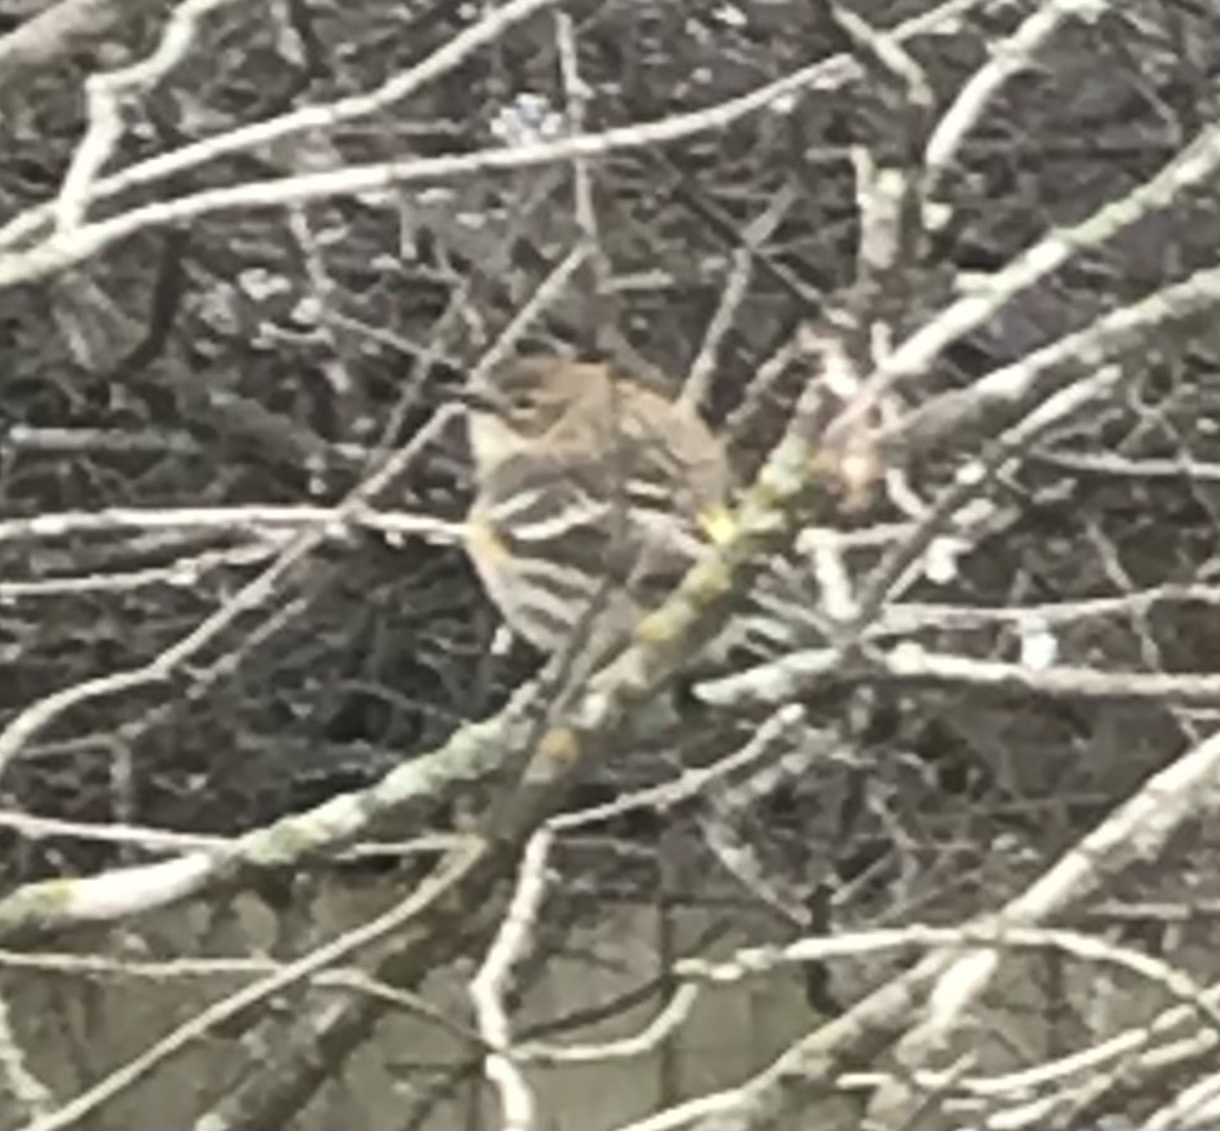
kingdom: Animalia
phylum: Chordata
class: Aves
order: Passeriformes
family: Parulidae
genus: Setophaga
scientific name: Setophaga coronata
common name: Myrtle warbler
